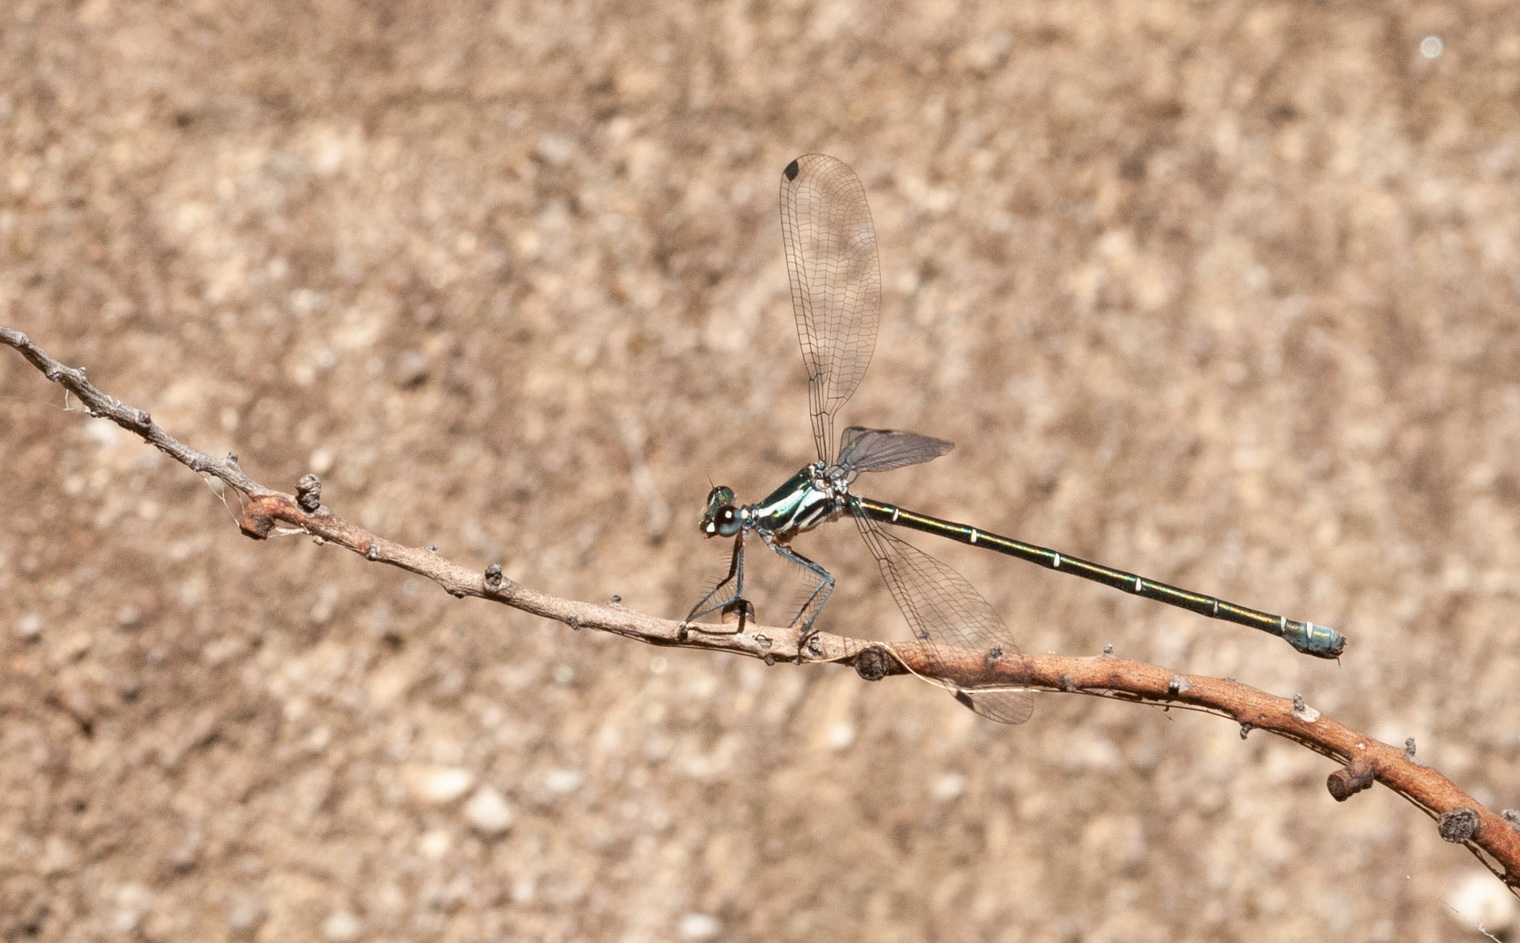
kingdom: Animalia
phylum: Arthropoda
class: Insecta
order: Odonata
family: Argiolestidae
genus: Austroargiolestes
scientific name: Austroargiolestes icteromelas
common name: Common flatwing
